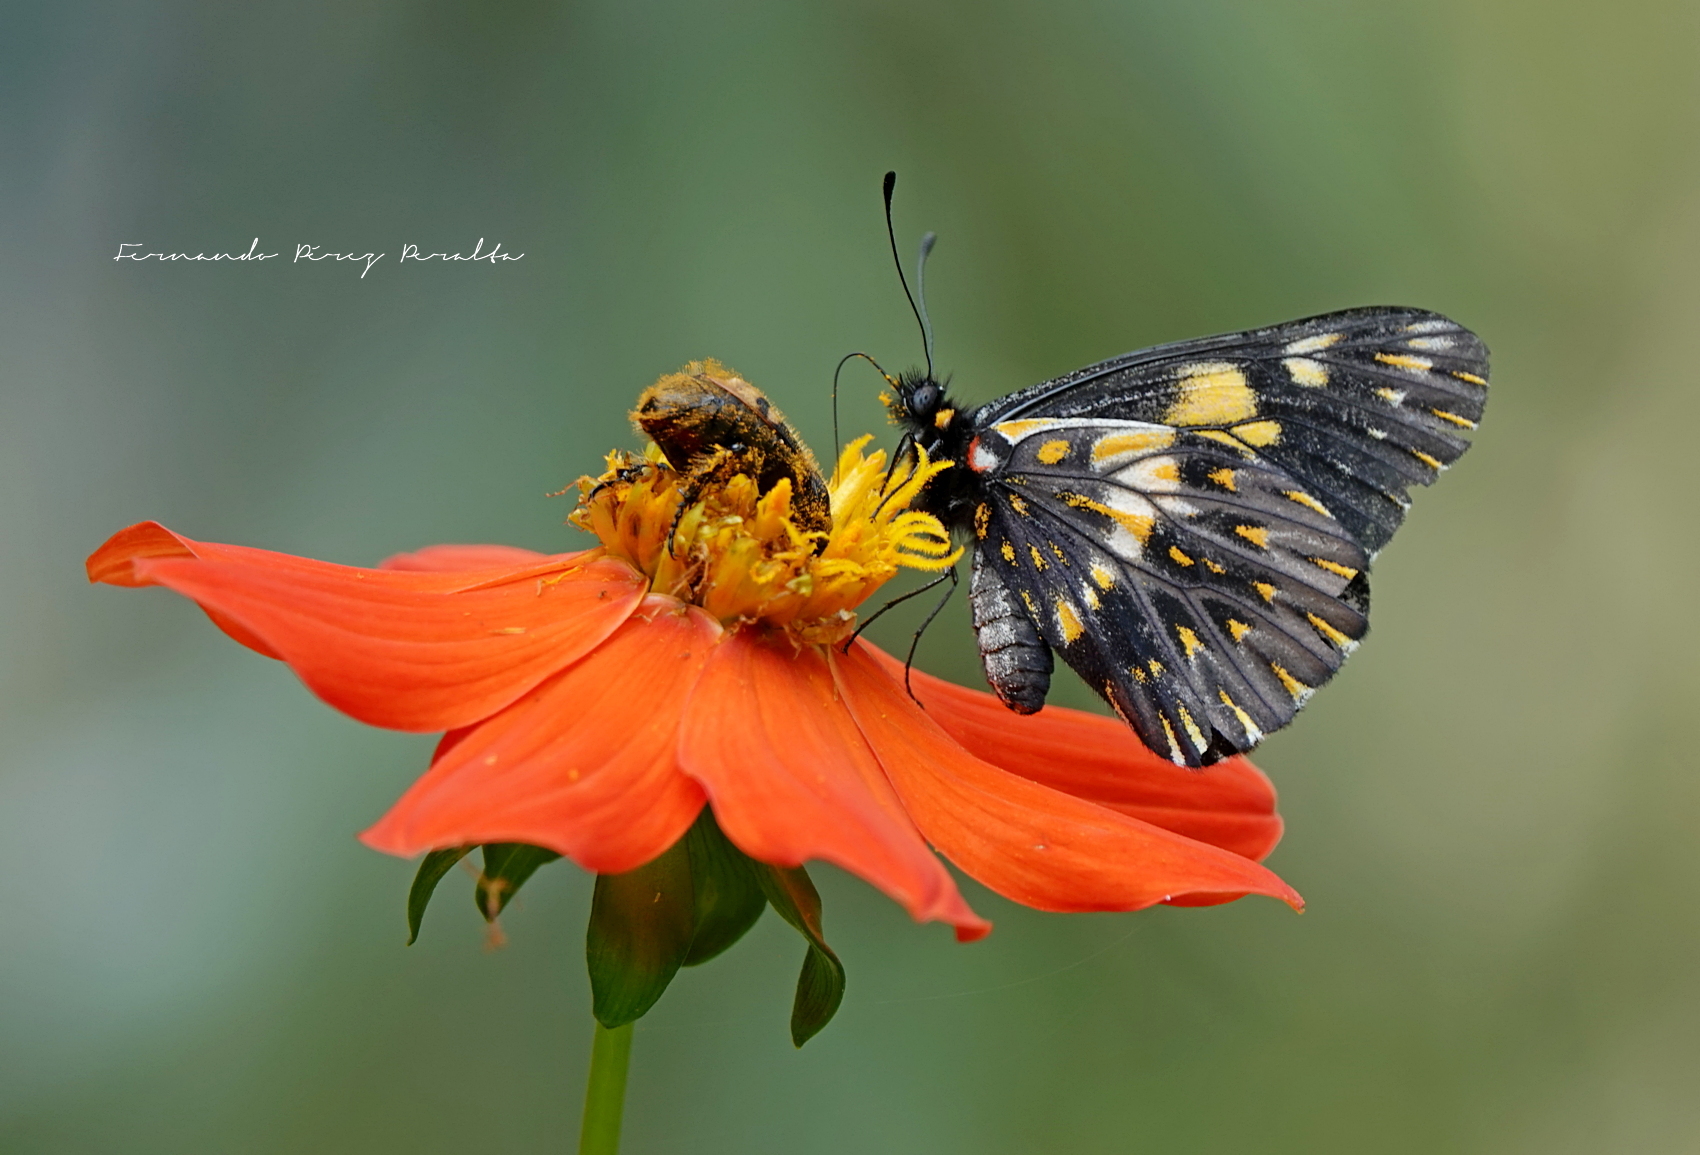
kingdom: Animalia
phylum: Arthropoda
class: Insecta
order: Lepidoptera
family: Pieridae
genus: Archonias
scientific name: Archonias teutila
